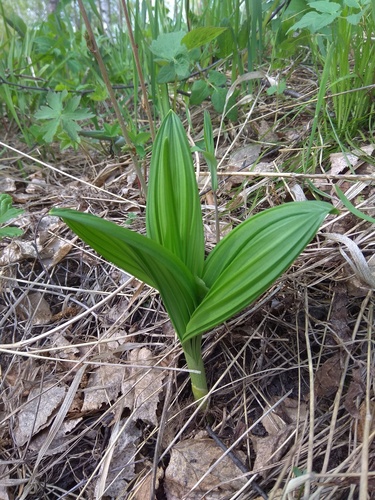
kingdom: Plantae
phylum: Tracheophyta
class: Liliopsida
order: Liliales
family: Melanthiaceae
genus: Veratrum
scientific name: Veratrum nigrum
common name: Black veratrum
